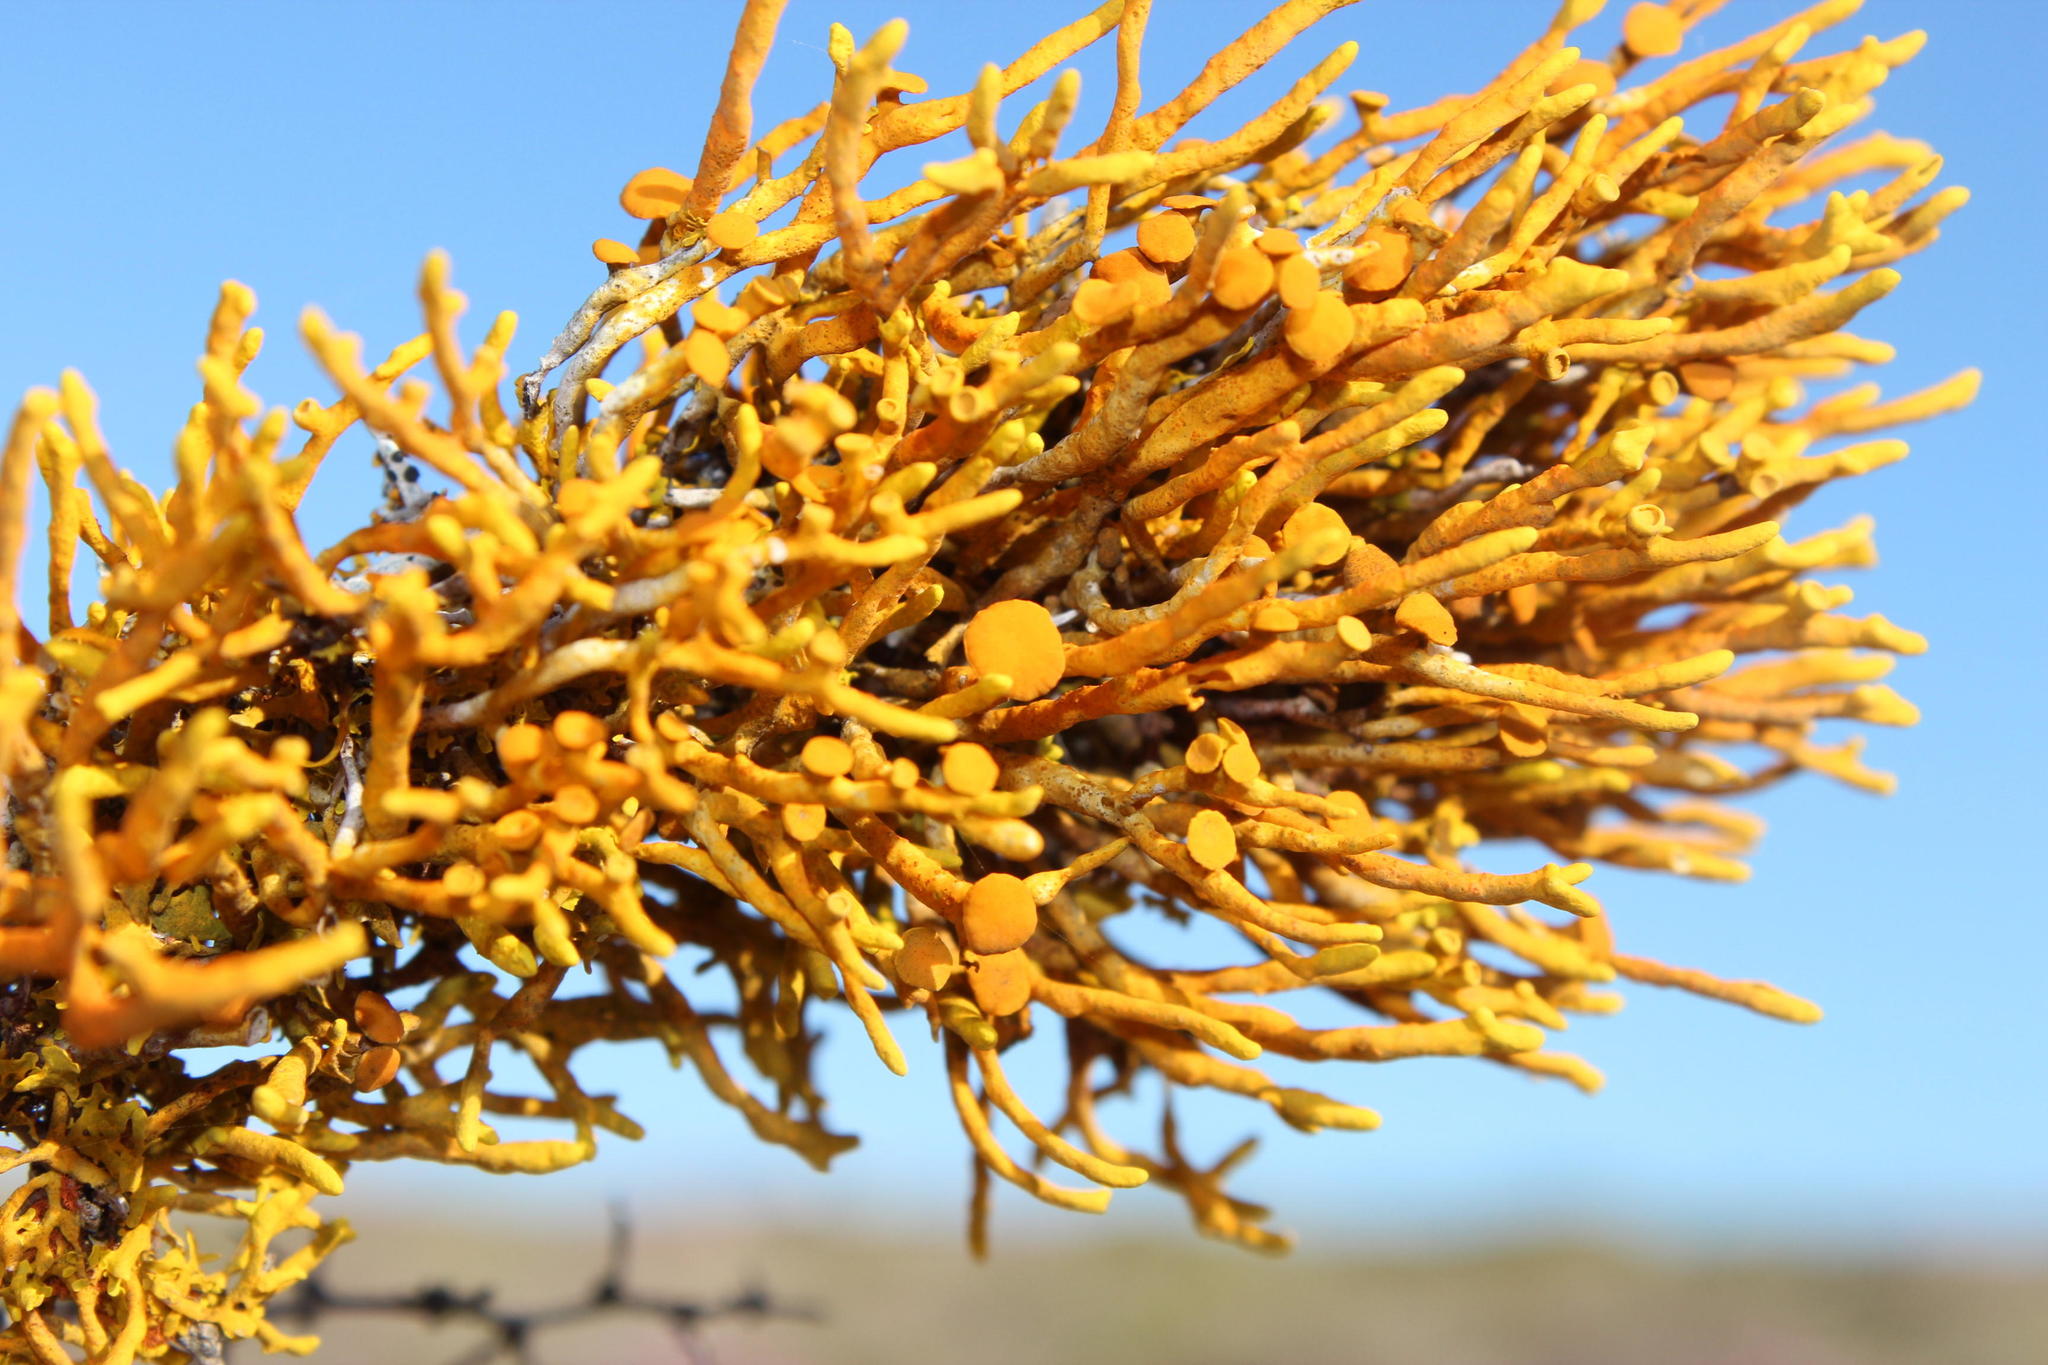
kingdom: Fungi
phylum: Ascomycota
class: Lecanoromycetes
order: Teloschistales
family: Teloschistaceae
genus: Dufourea
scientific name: Dufourea flammea
